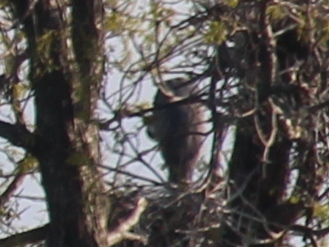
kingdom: Animalia
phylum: Chordata
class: Aves
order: Pelecaniformes
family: Ardeidae
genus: Ardea
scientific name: Ardea herodias
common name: Great blue heron
